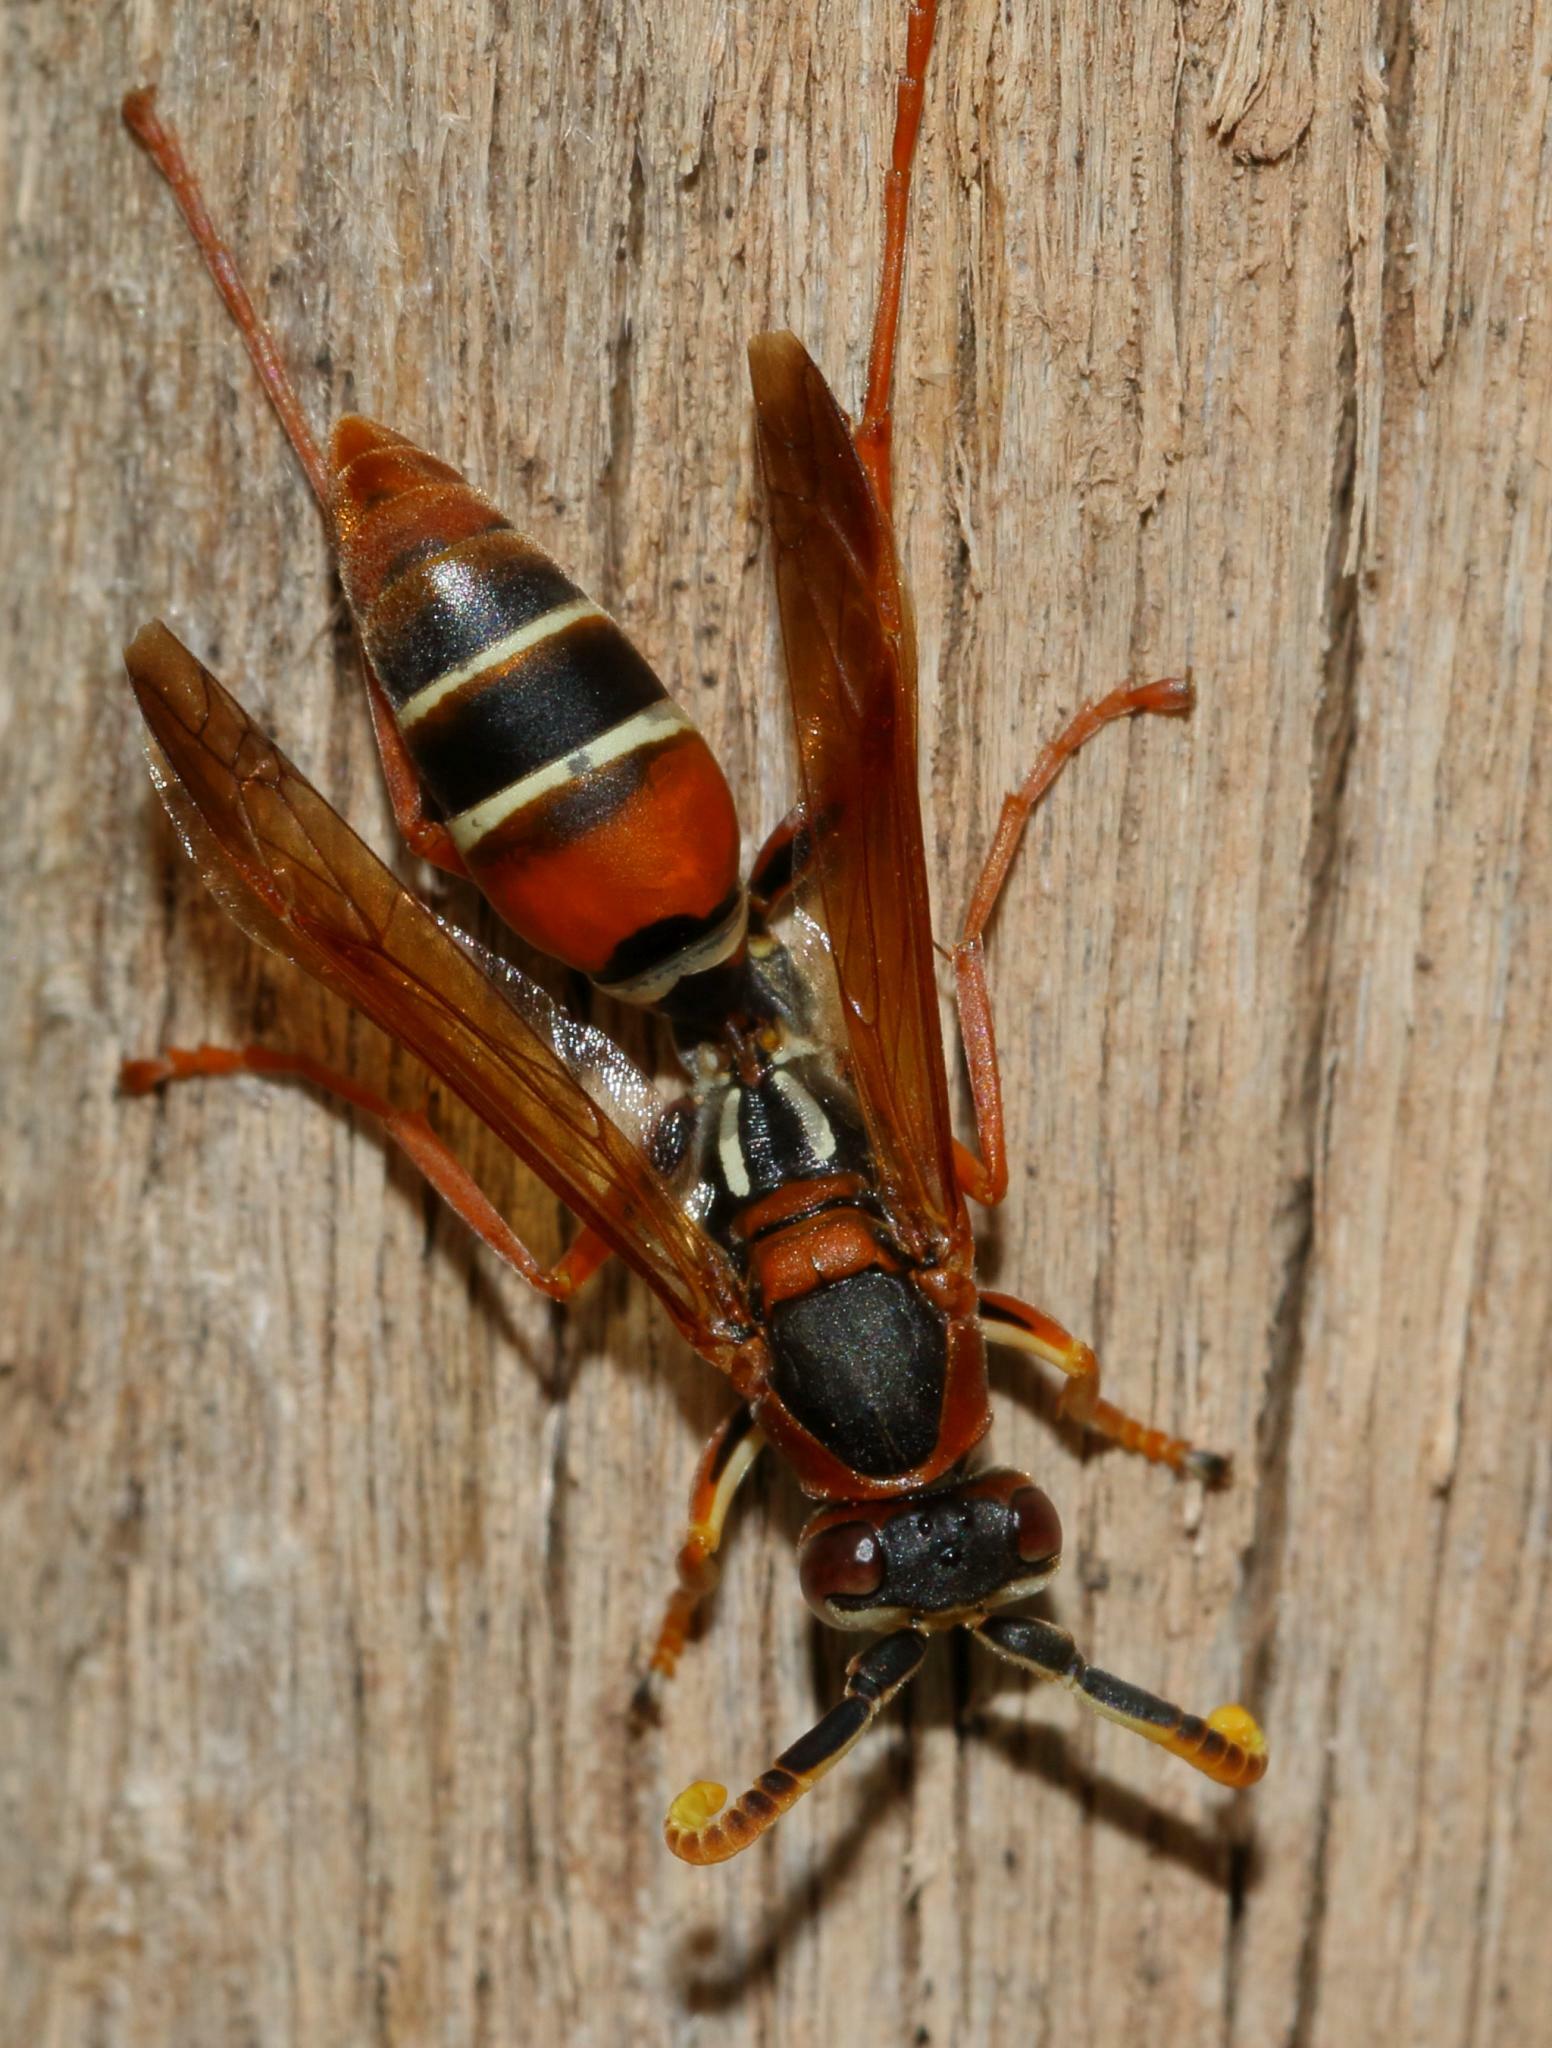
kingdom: Animalia
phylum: Arthropoda
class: Insecta
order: Hymenoptera
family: Eumenidae
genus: Polistes
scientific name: Polistes marginalis
